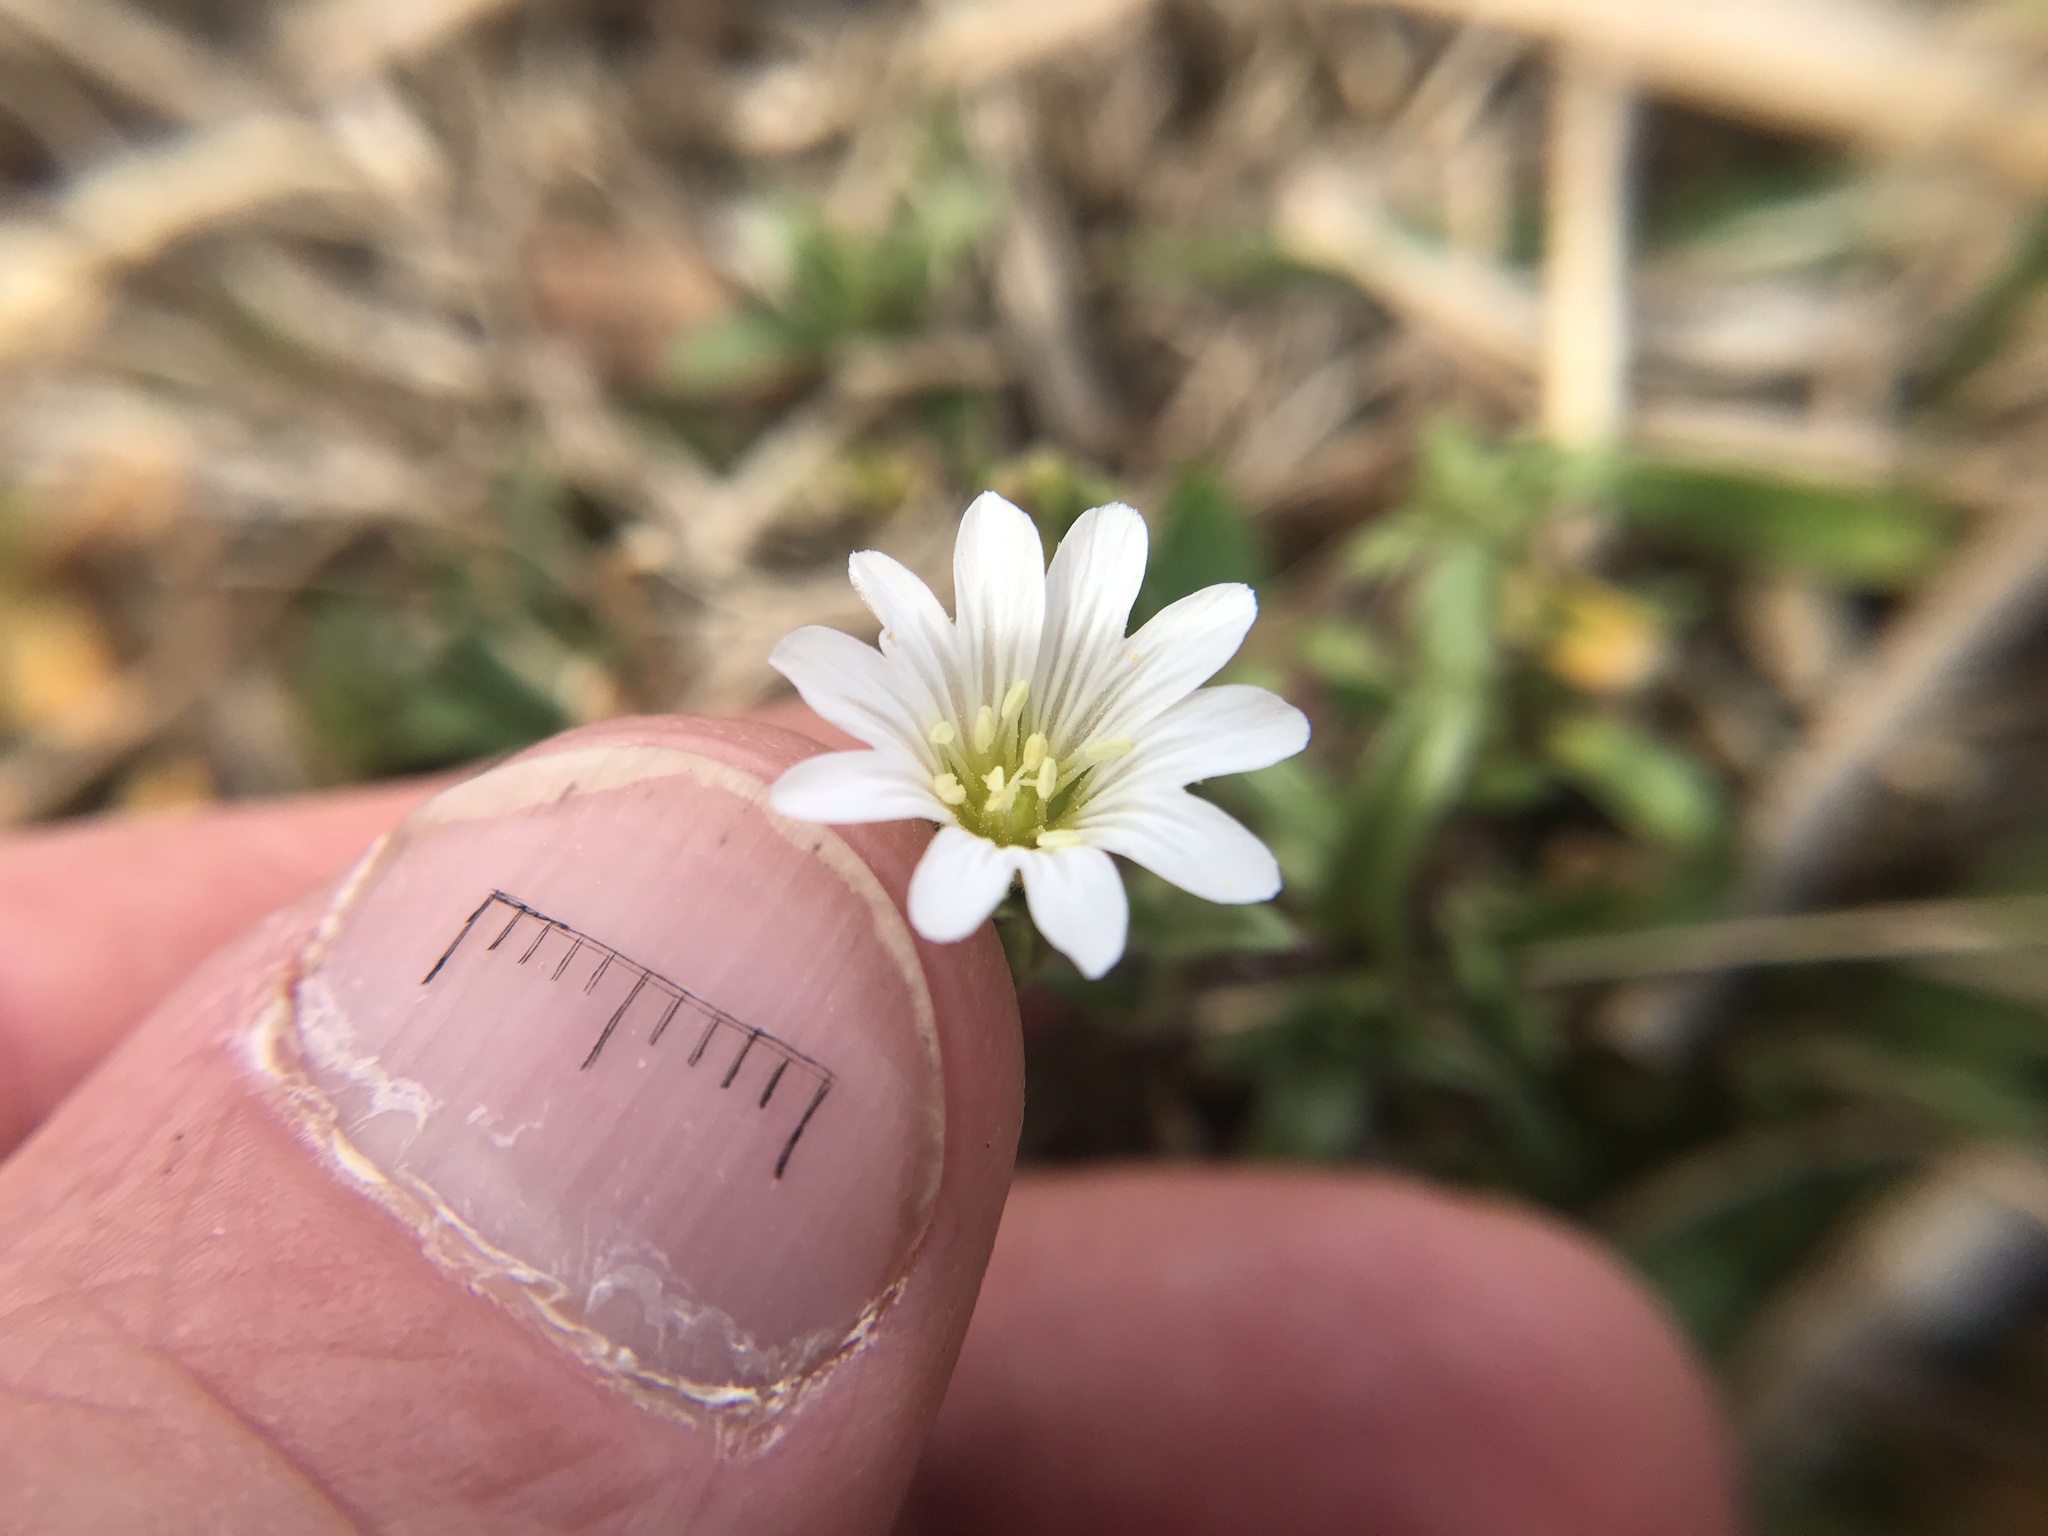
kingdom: Plantae
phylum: Tracheophyta
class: Magnoliopsida
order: Caryophyllales
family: Caryophyllaceae
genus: Cerastium
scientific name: Cerastium velutinum
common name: Barren chickweed
